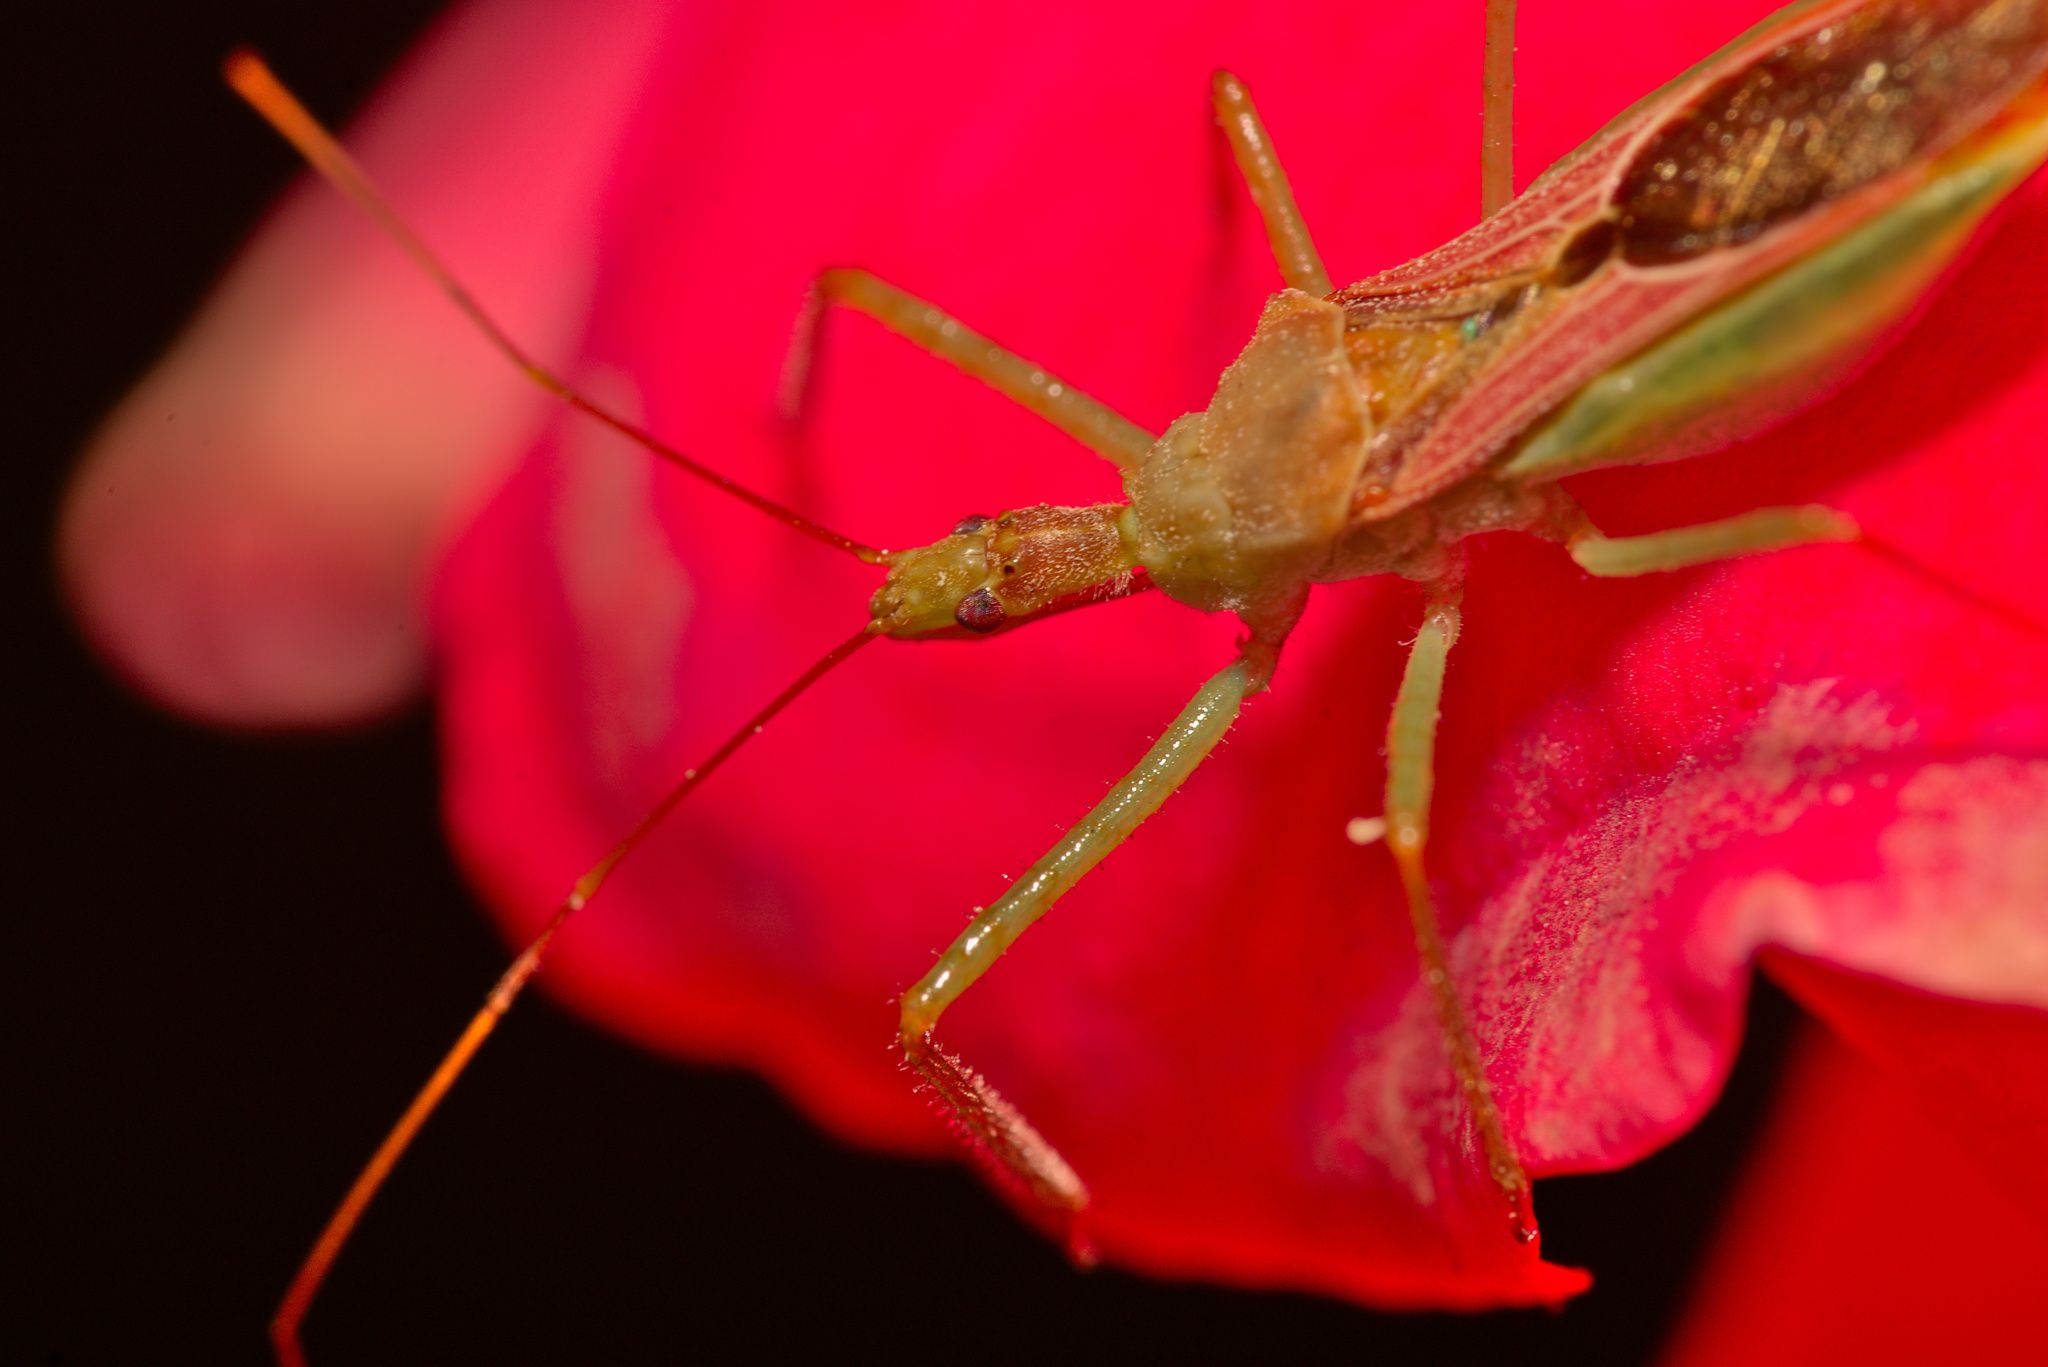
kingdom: Animalia
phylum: Arthropoda
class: Insecta
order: Hemiptera
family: Reduviidae
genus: Zelus
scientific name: Zelus renardii
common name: Assassin bug
